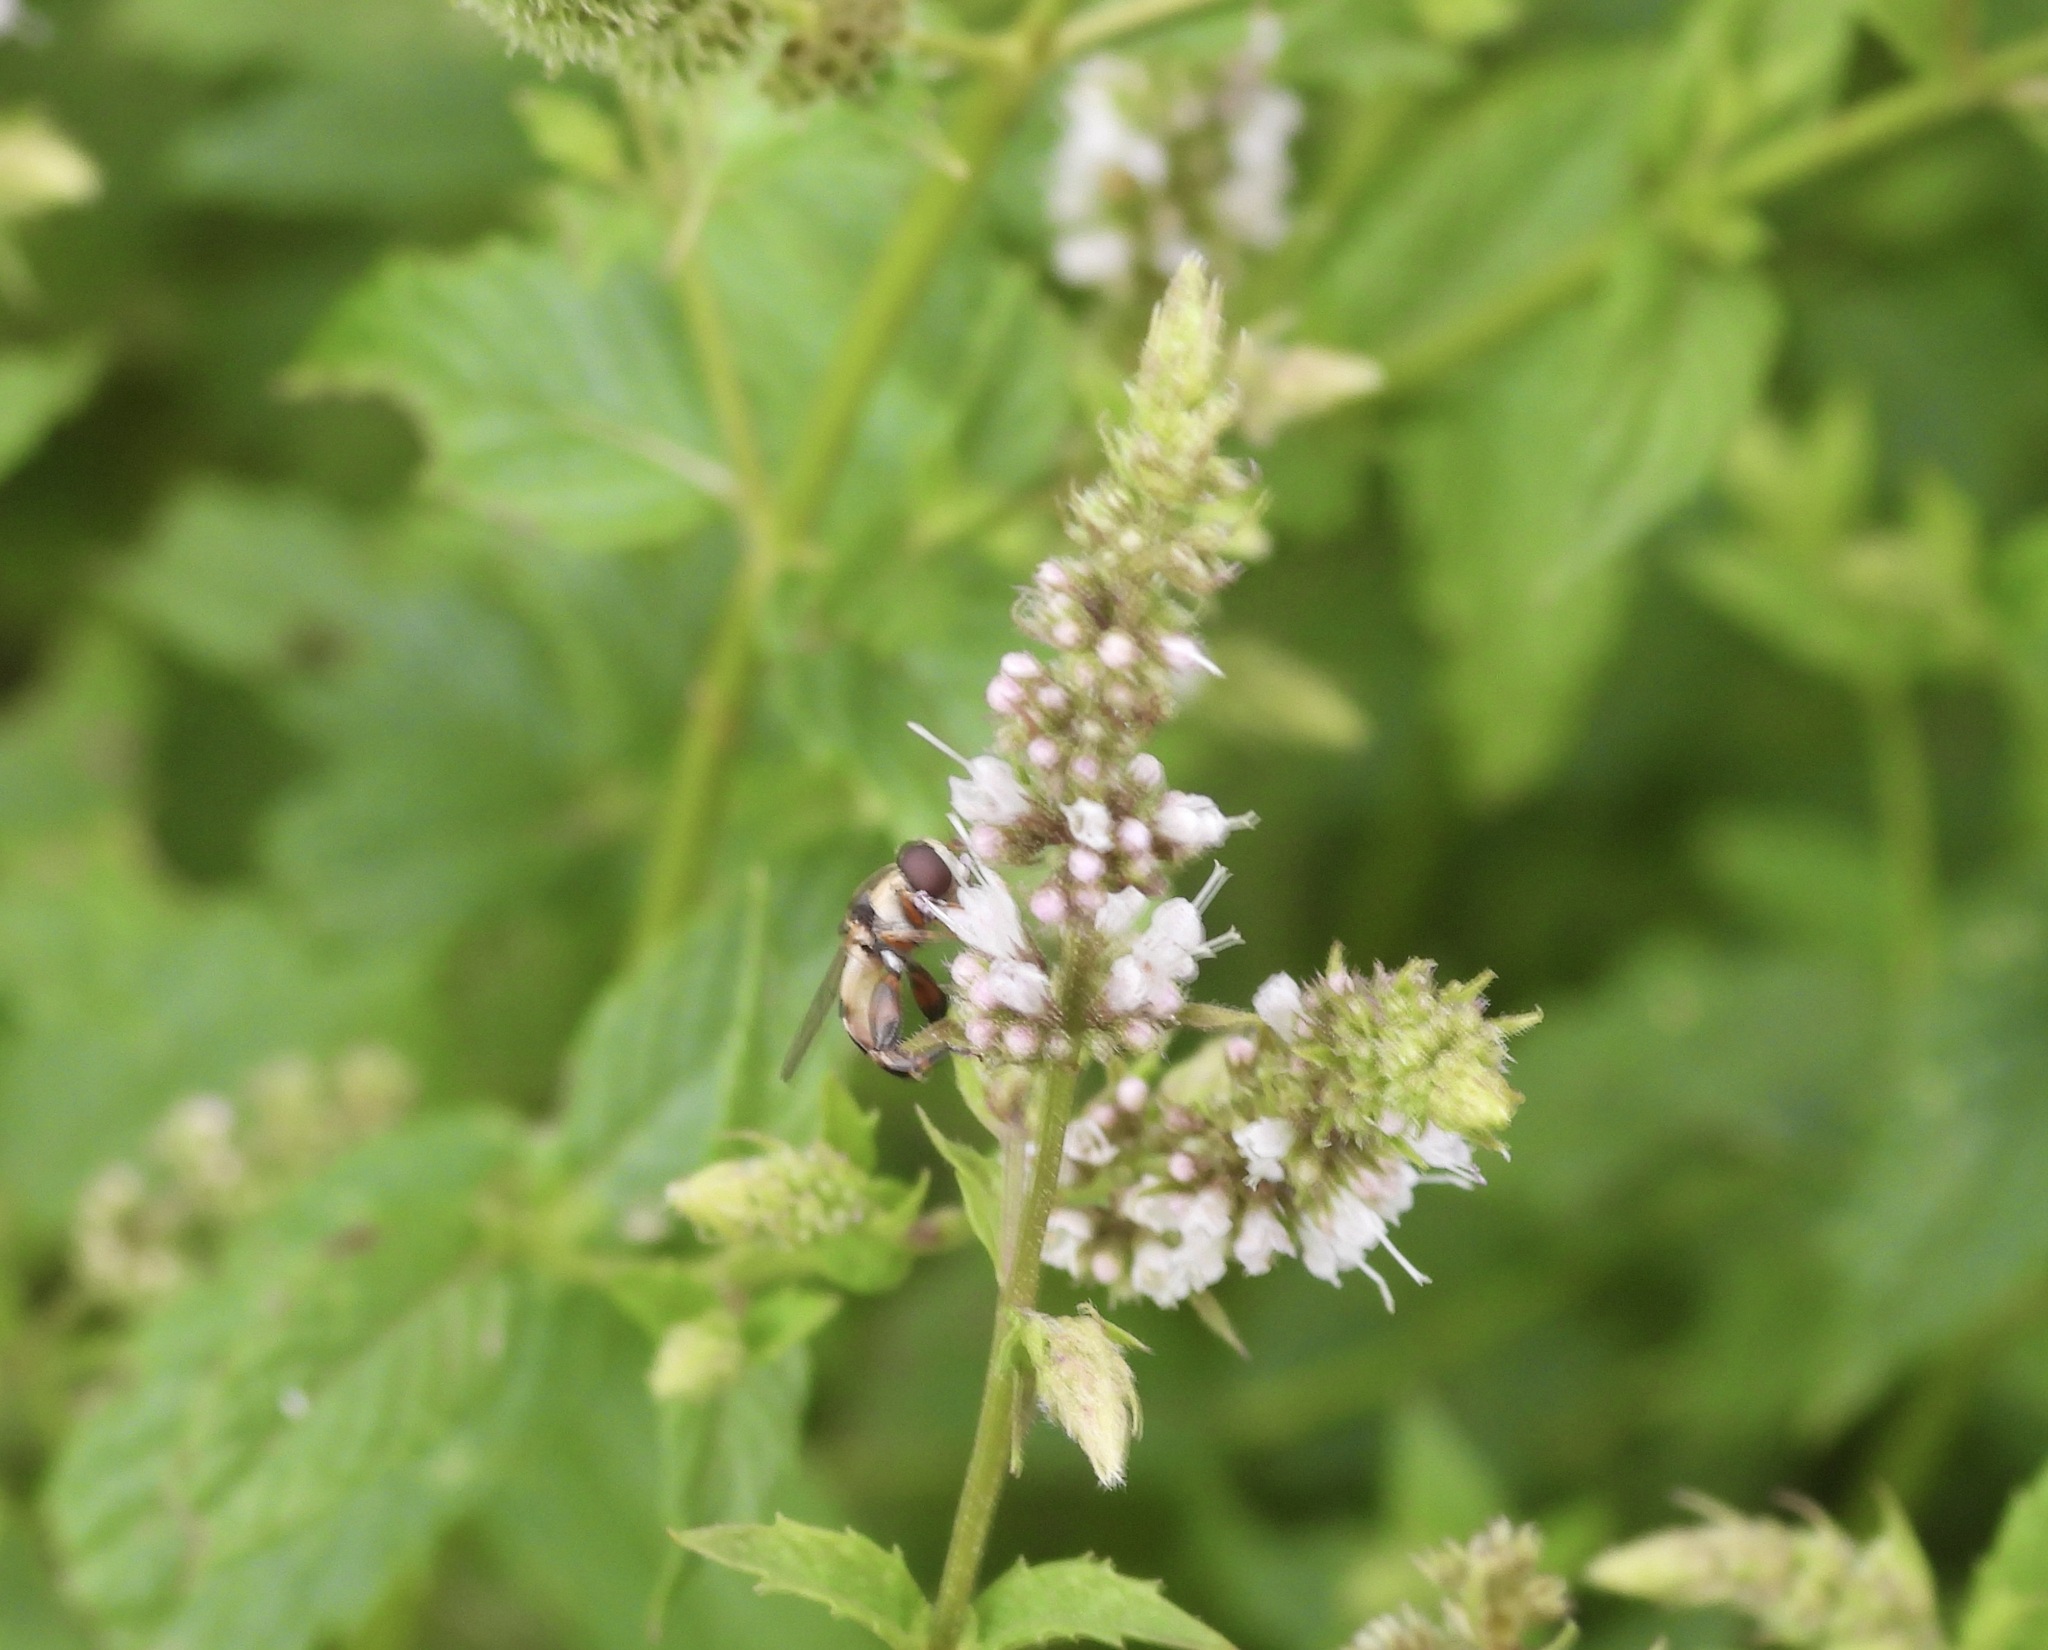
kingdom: Animalia
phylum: Arthropoda
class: Insecta
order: Diptera
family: Syrphidae
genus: Syritta
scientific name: Syritta pipiens
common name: Hover fly
